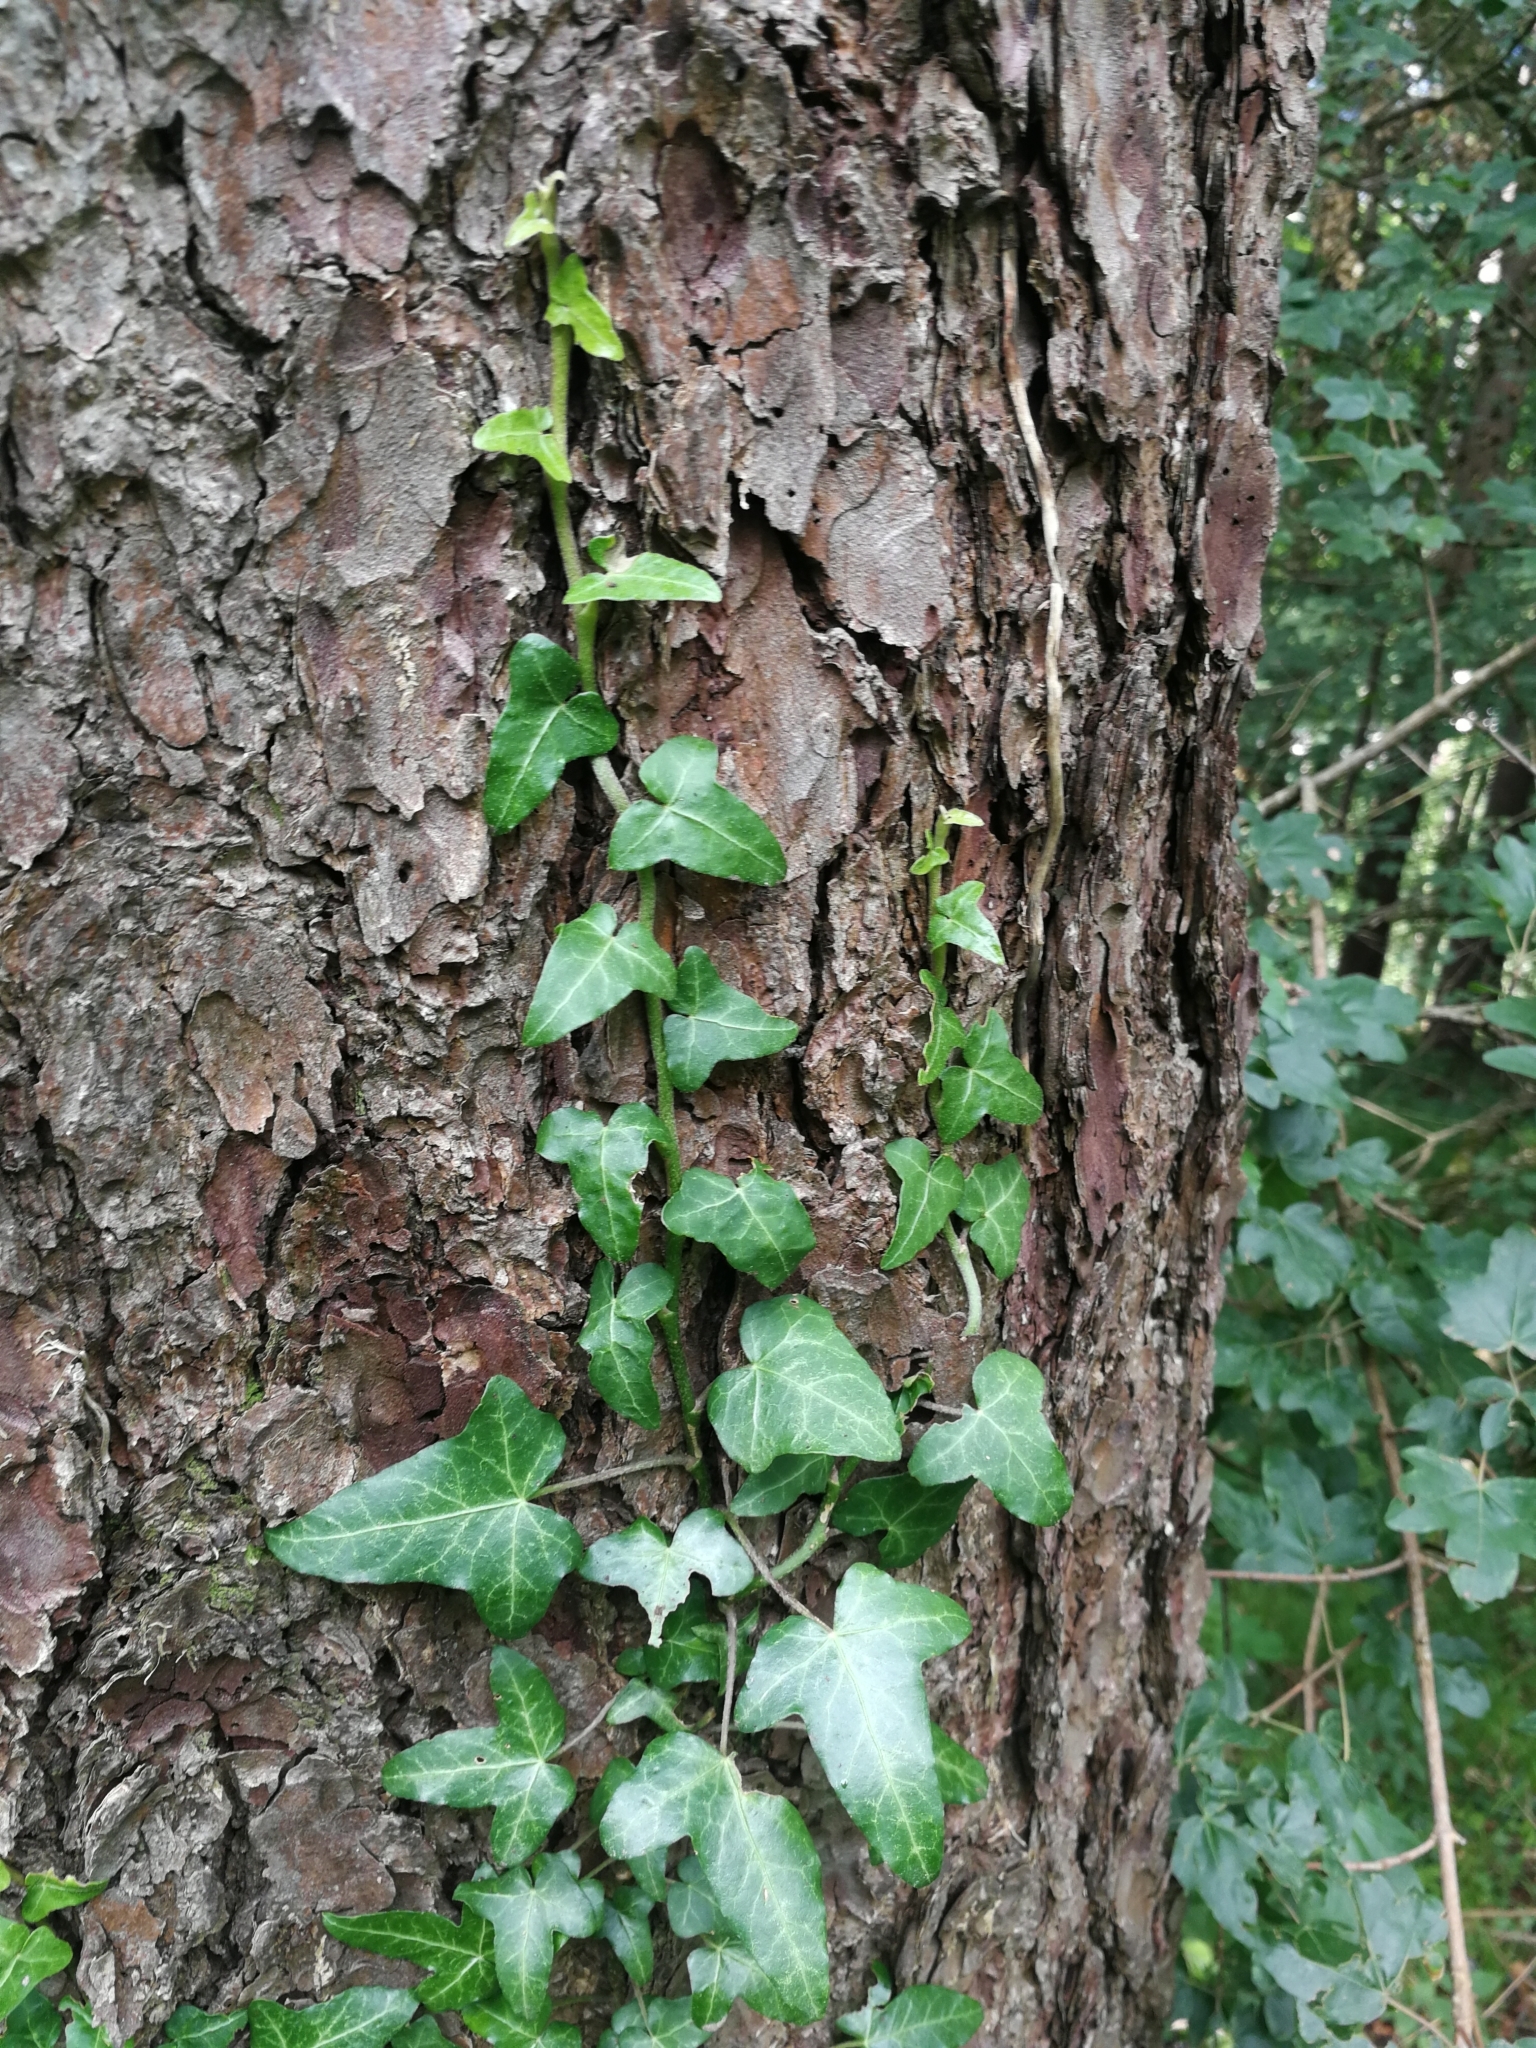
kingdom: Plantae
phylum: Tracheophyta
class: Magnoliopsida
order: Apiales
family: Araliaceae
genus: Hedera
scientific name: Hedera helix
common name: Ivy
